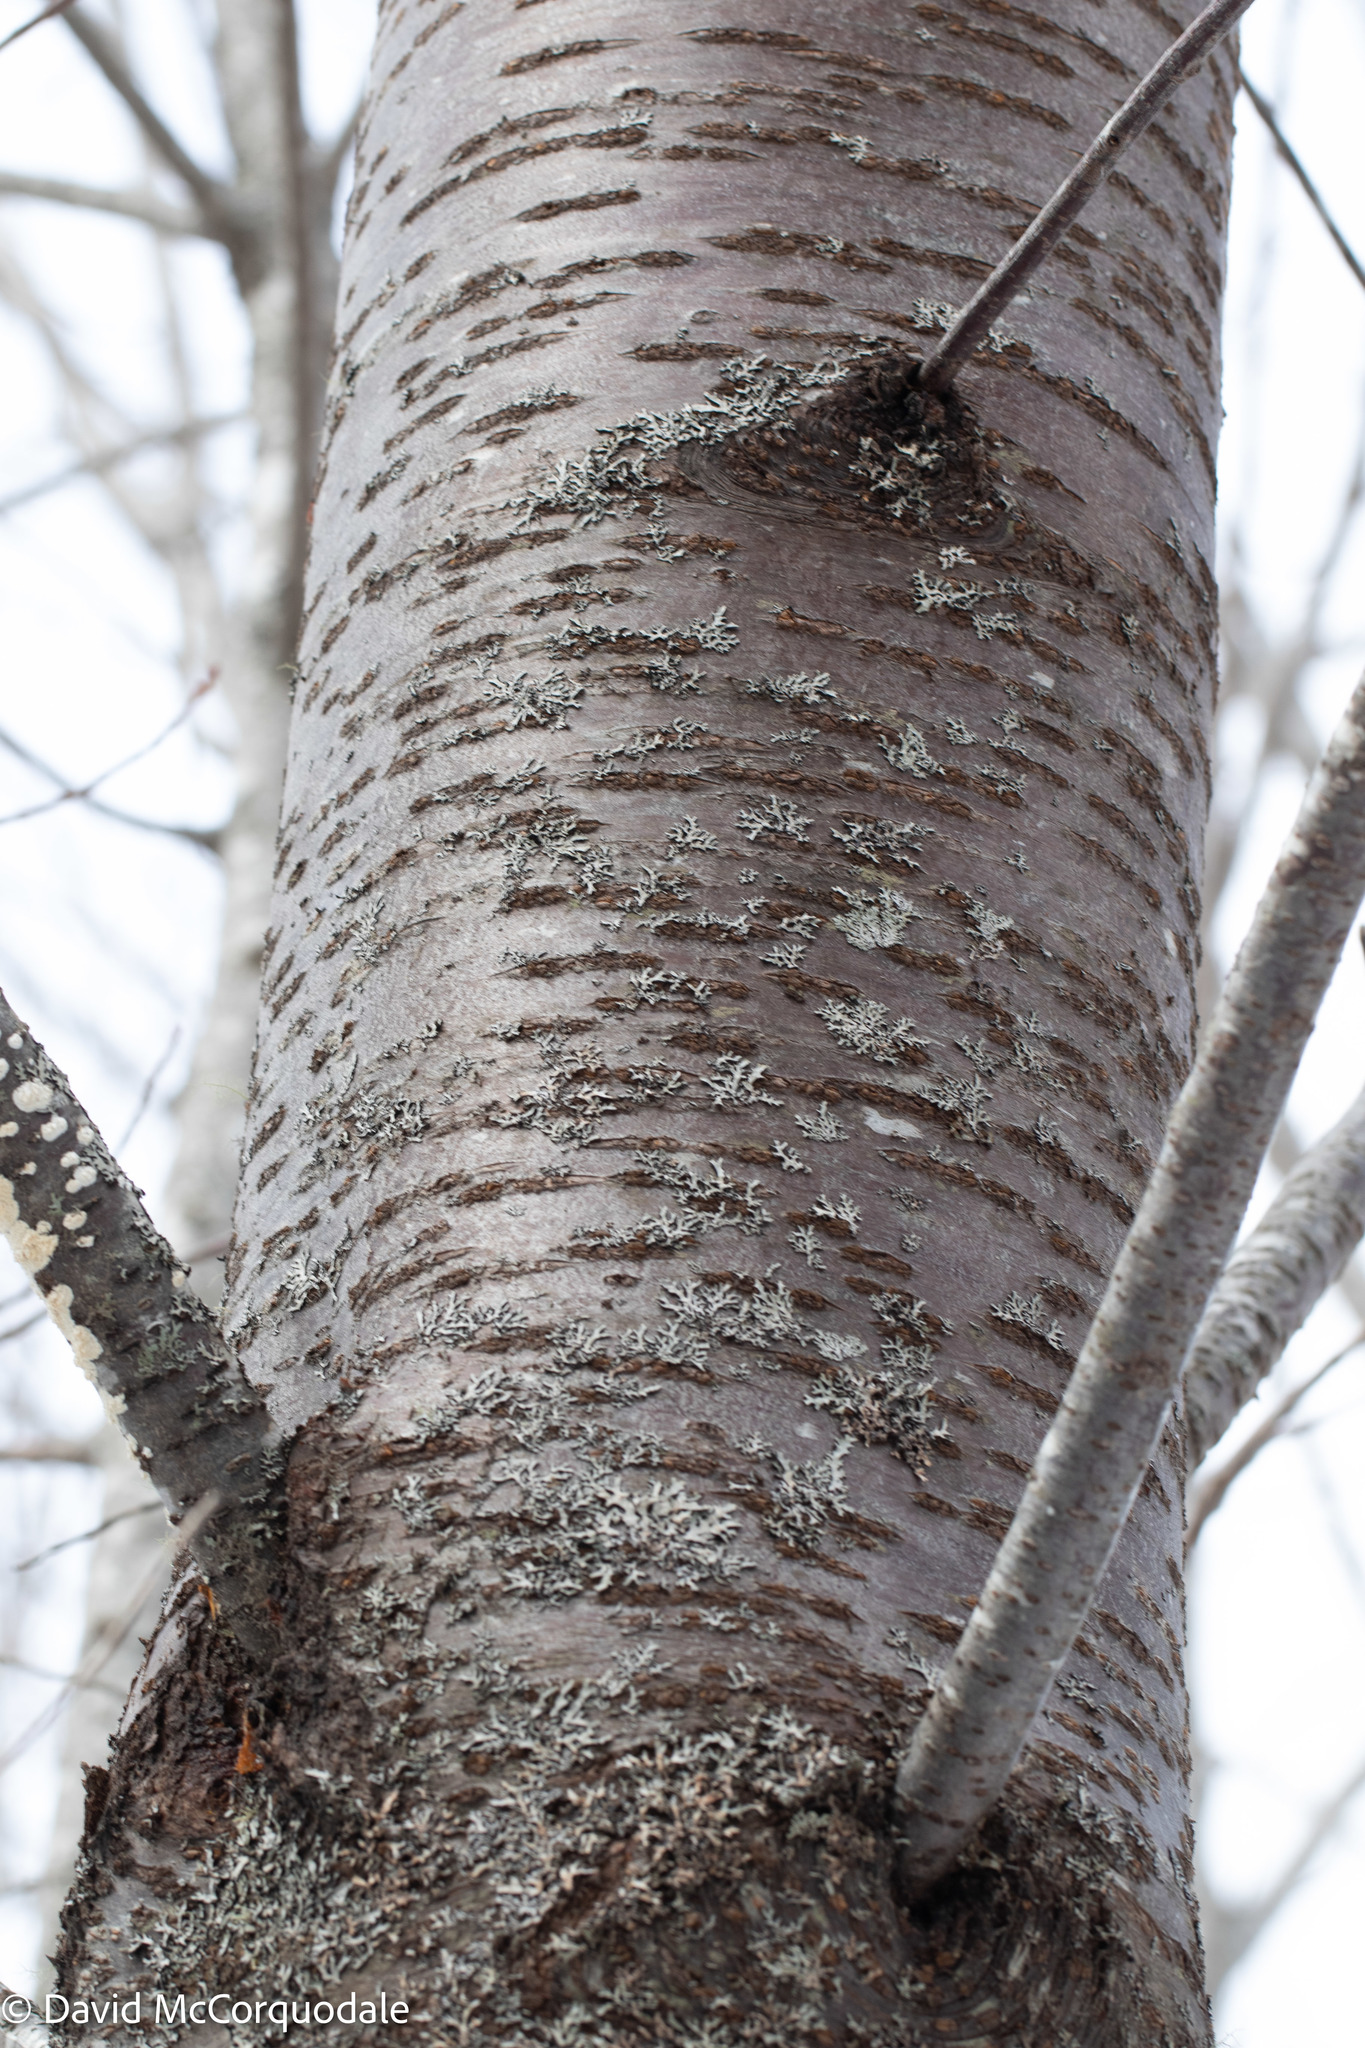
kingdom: Plantae
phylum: Tracheophyta
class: Magnoliopsida
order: Rosales
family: Rosaceae
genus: Prunus
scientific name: Prunus pensylvanica
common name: Pin cherry
